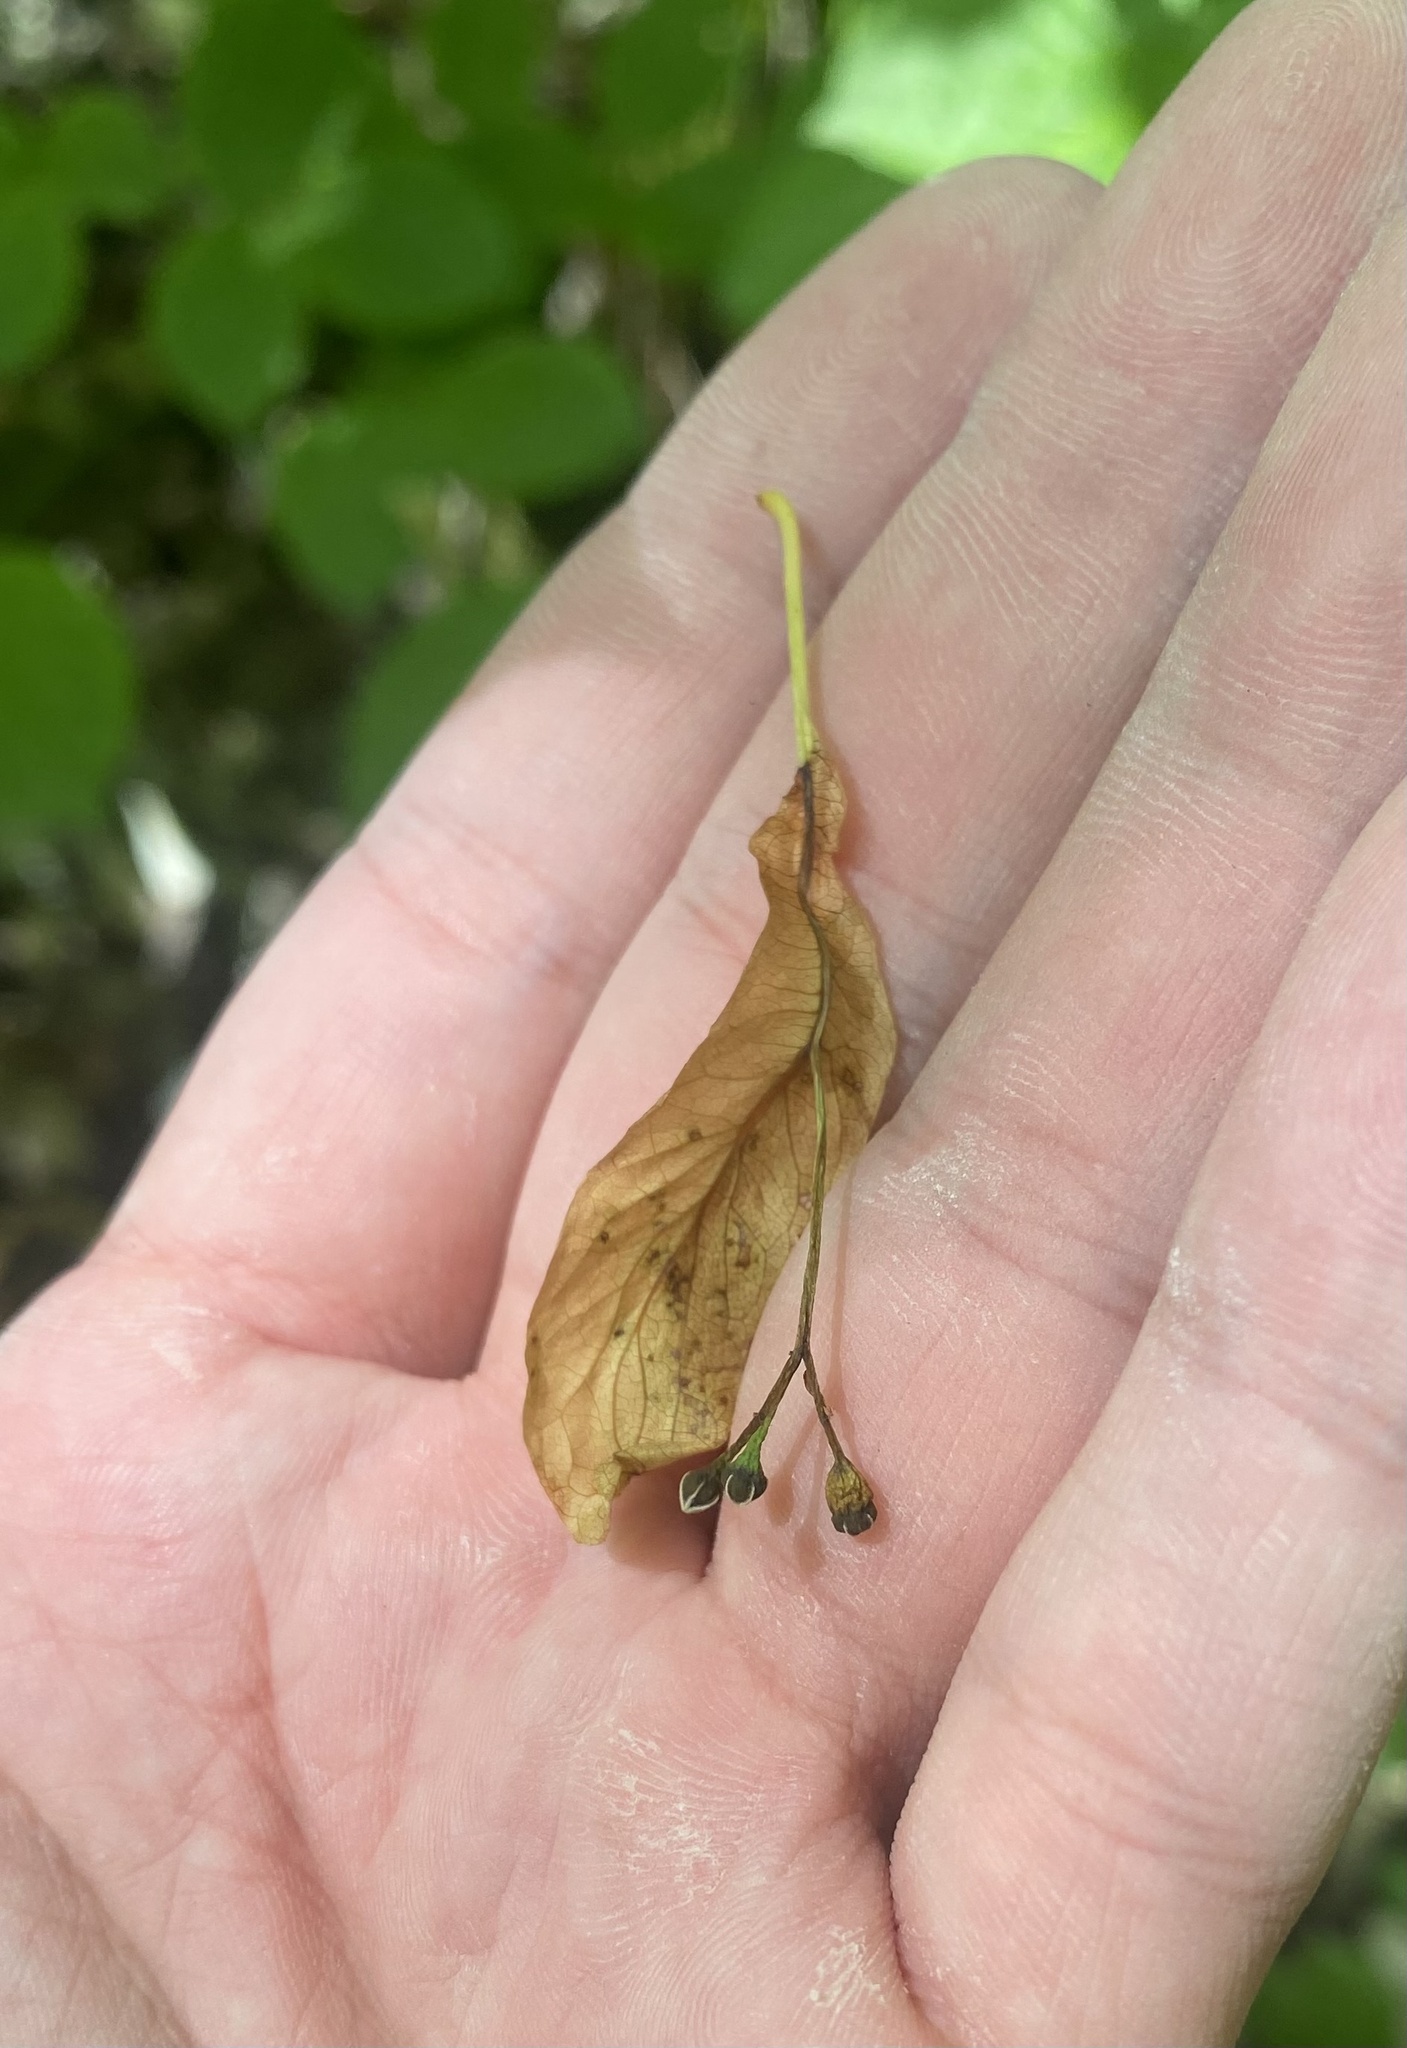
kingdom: Plantae
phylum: Tracheophyta
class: Magnoliopsida
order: Malvales
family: Malvaceae
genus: Tilia
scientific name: Tilia cordata
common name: Small-leaved lime
